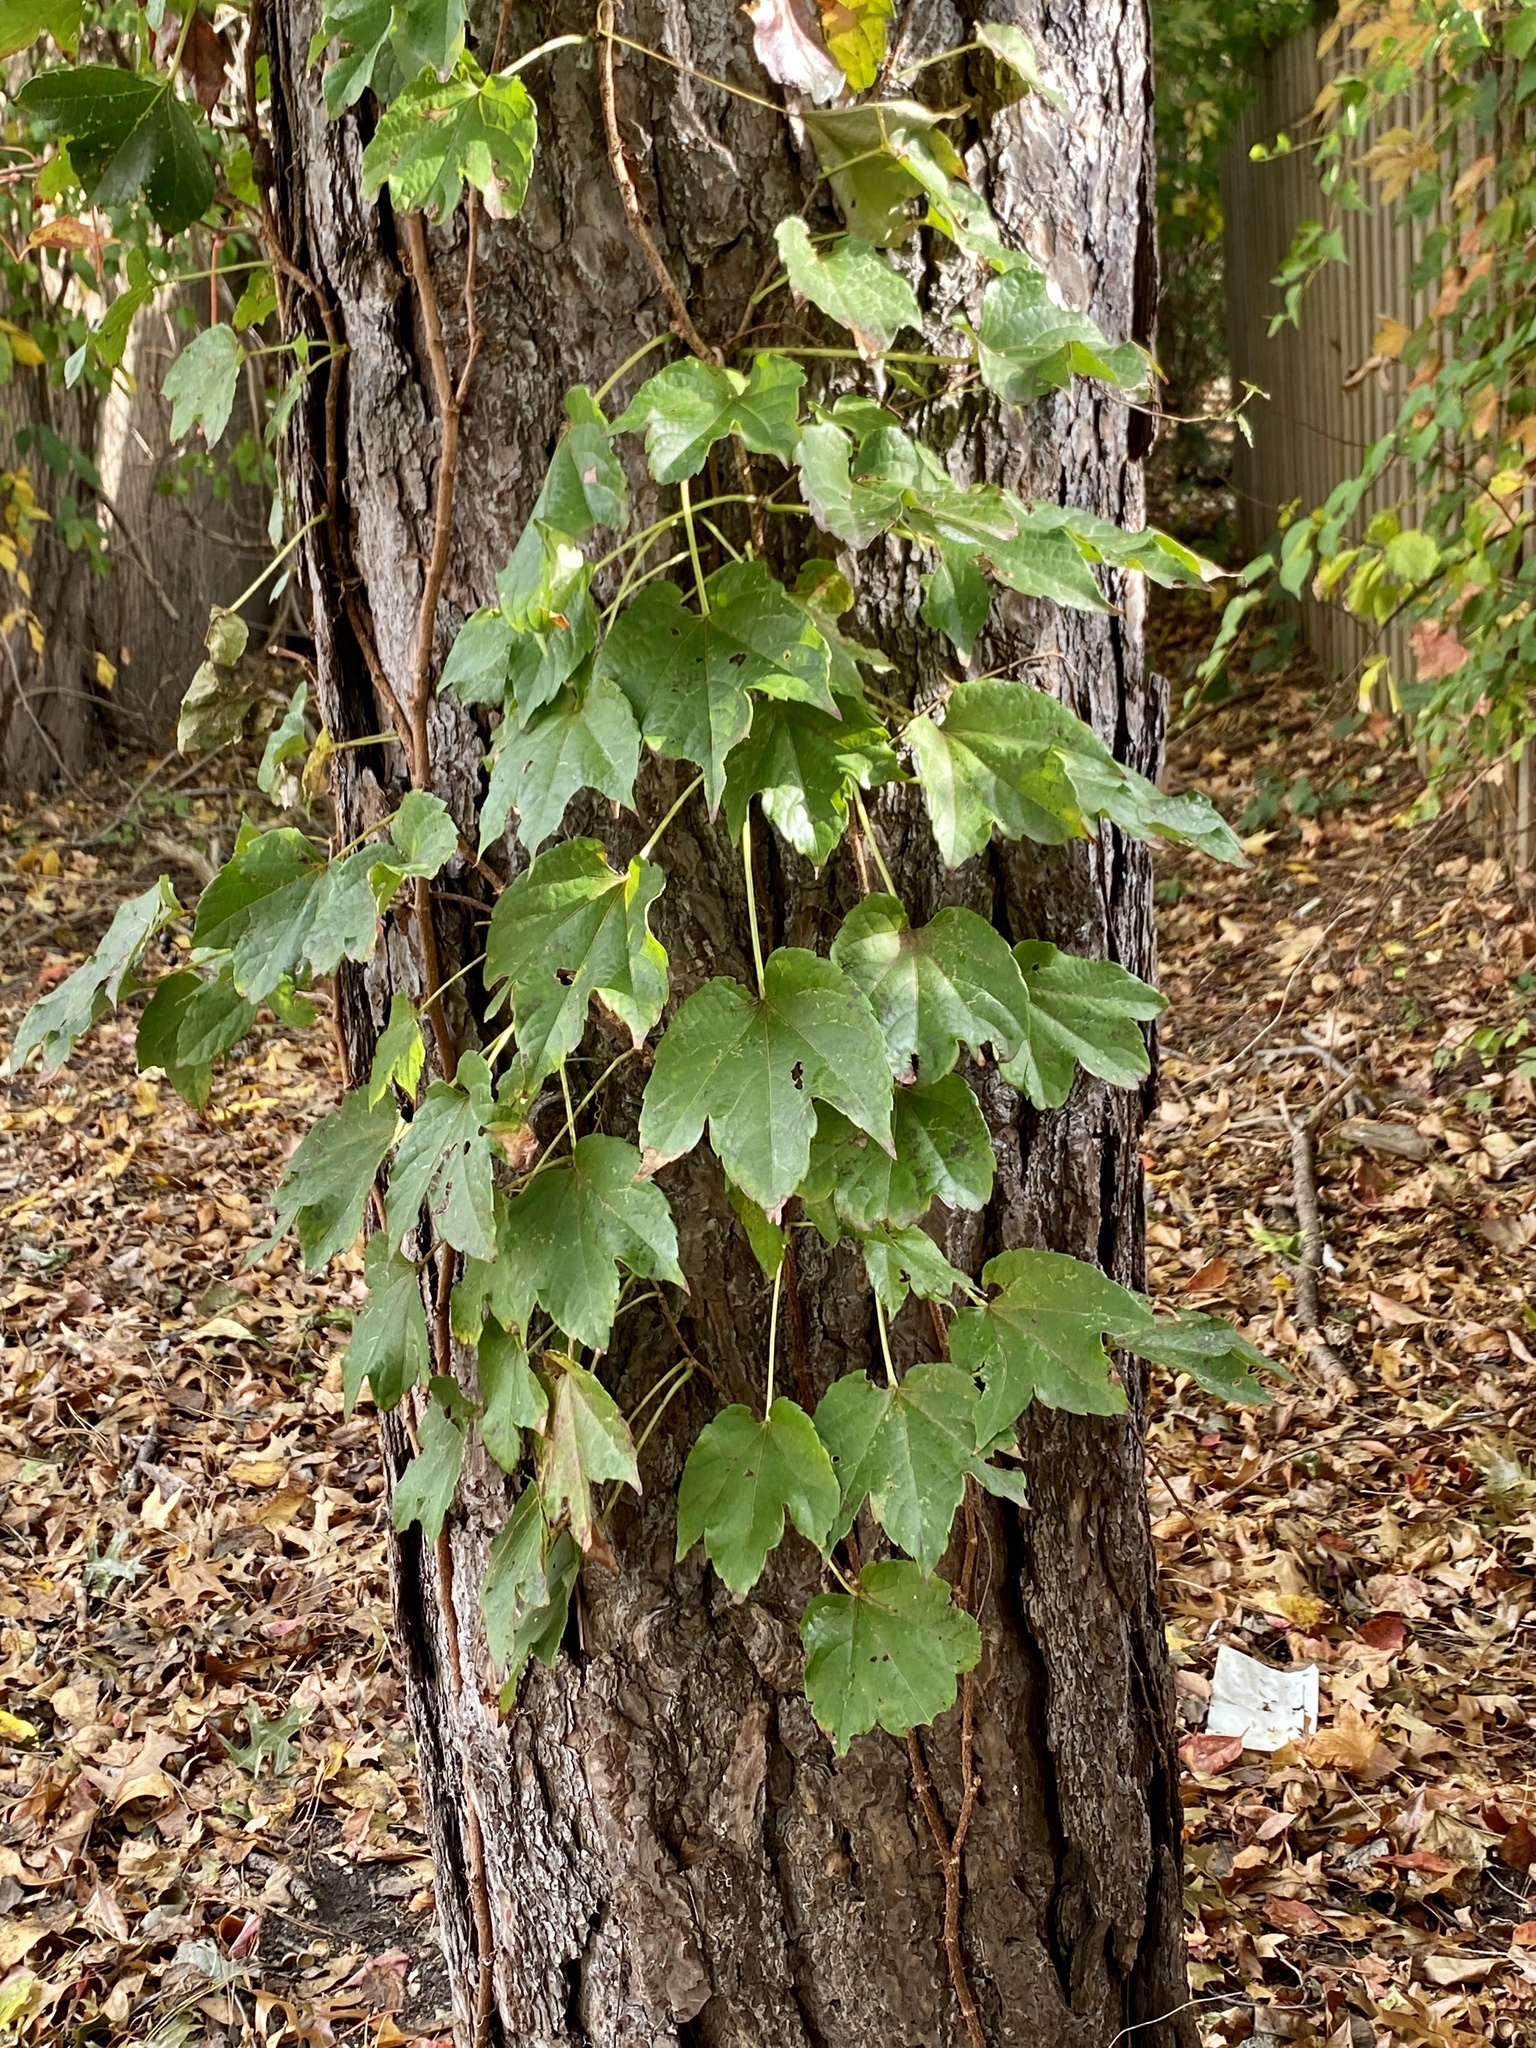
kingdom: Plantae
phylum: Tracheophyta
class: Magnoliopsida
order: Vitales
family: Vitaceae
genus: Parthenocissus
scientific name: Parthenocissus tricuspidata
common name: Boston ivy
